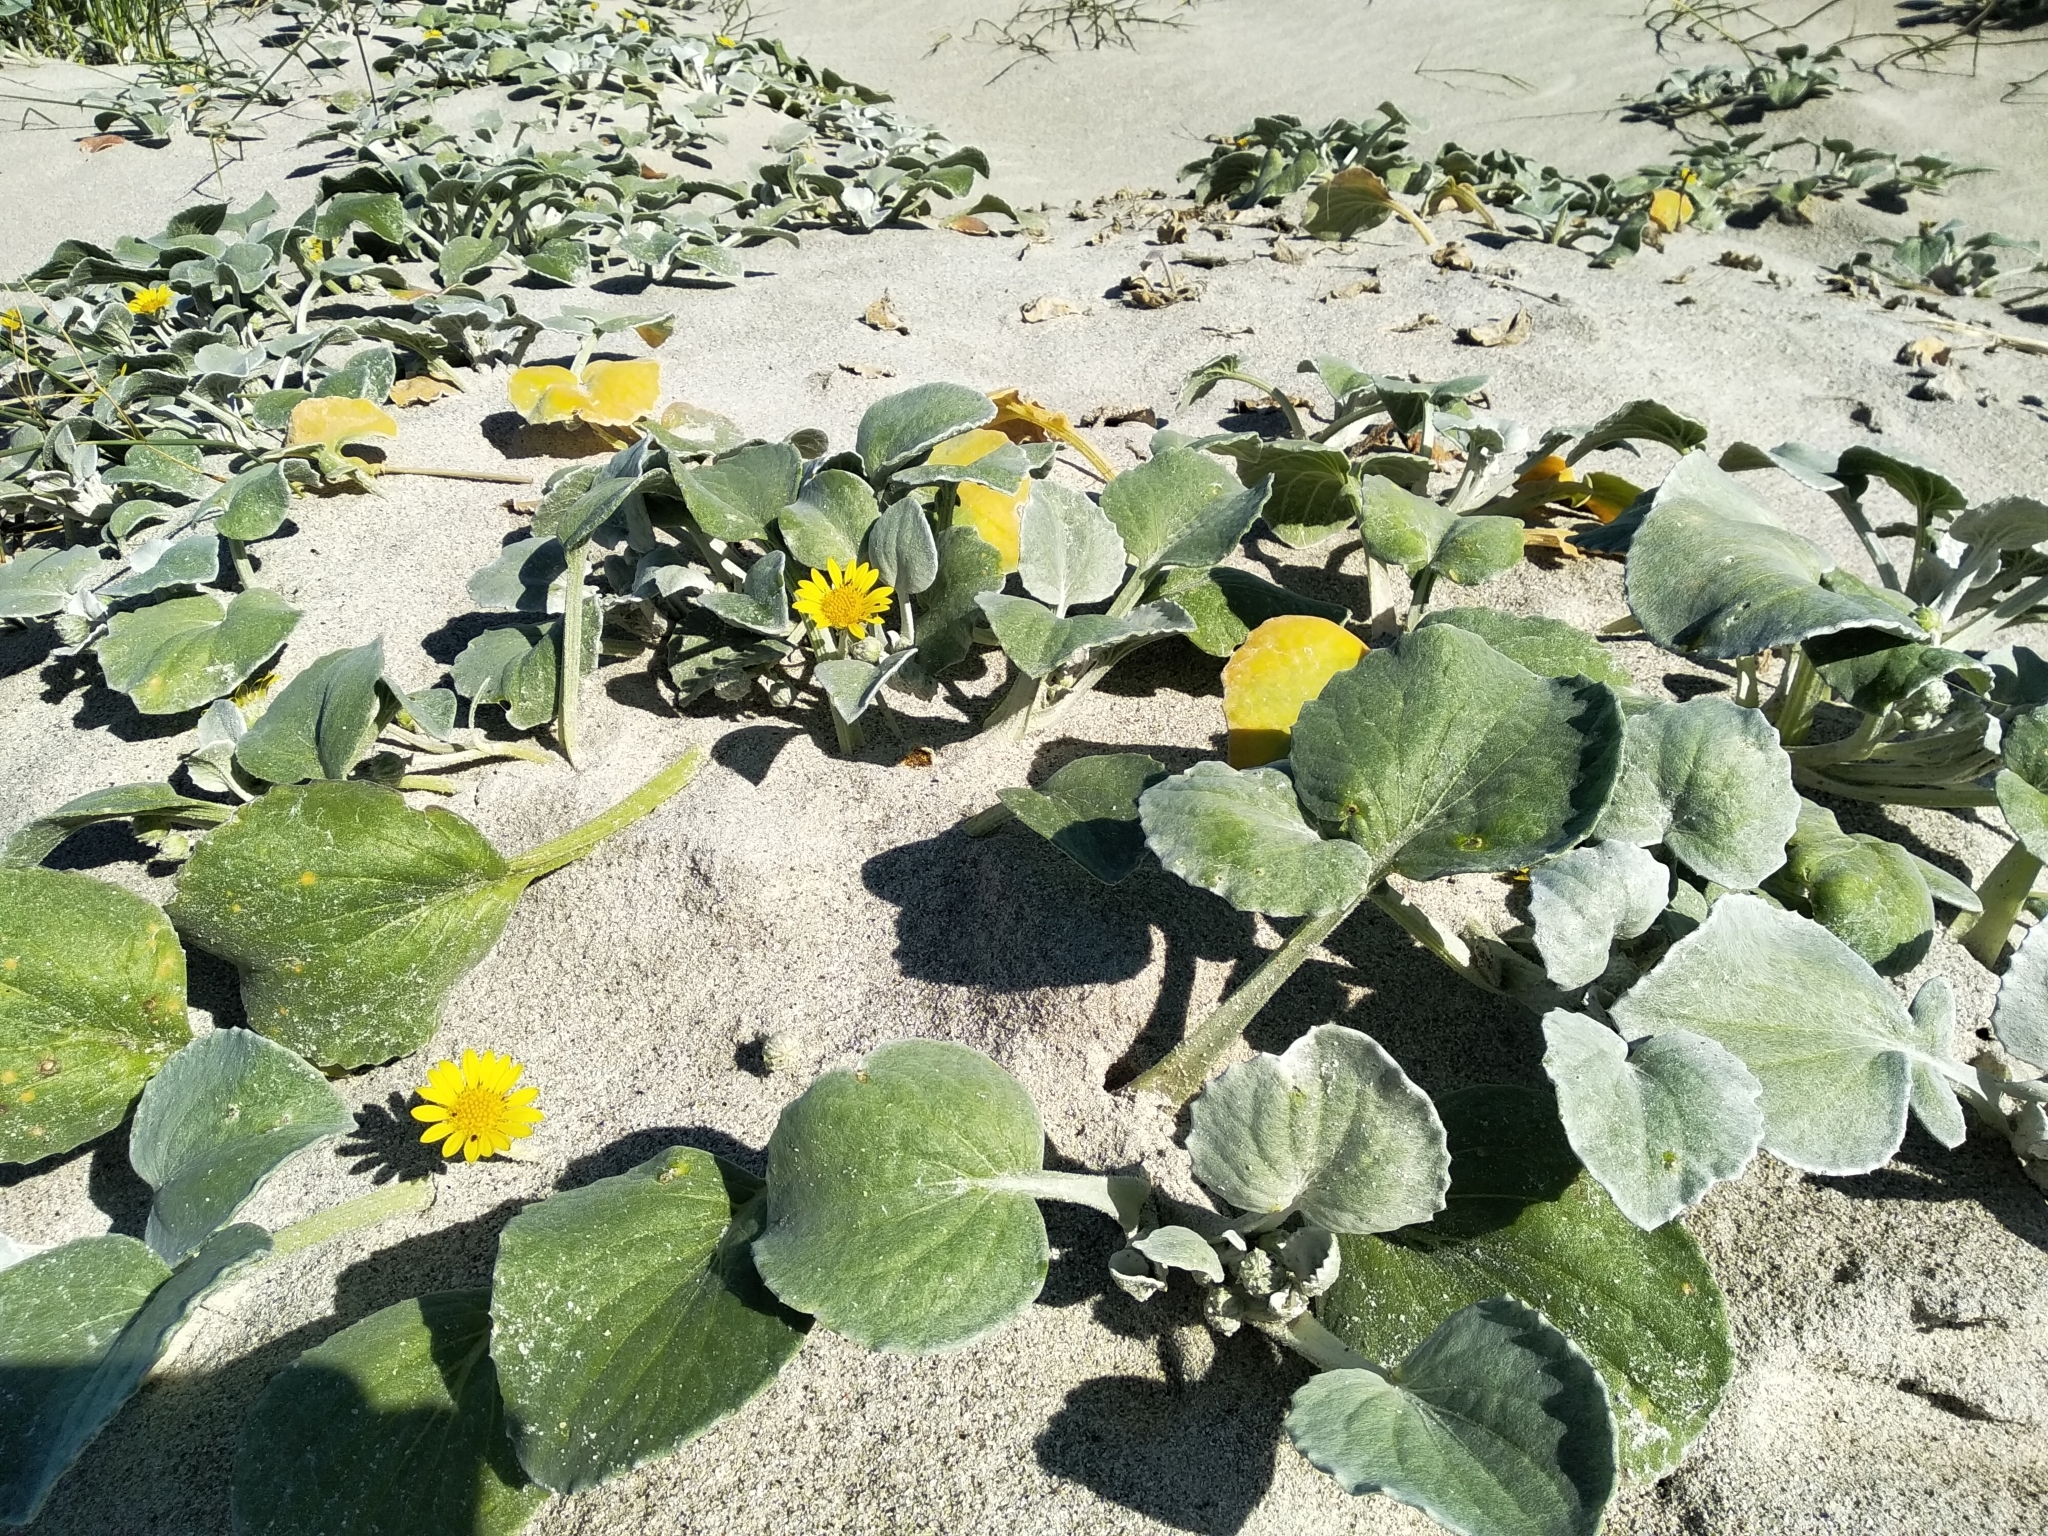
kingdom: Plantae
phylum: Tracheophyta
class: Magnoliopsida
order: Asterales
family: Asteraceae
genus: Arctotheca
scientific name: Arctotheca populifolia
